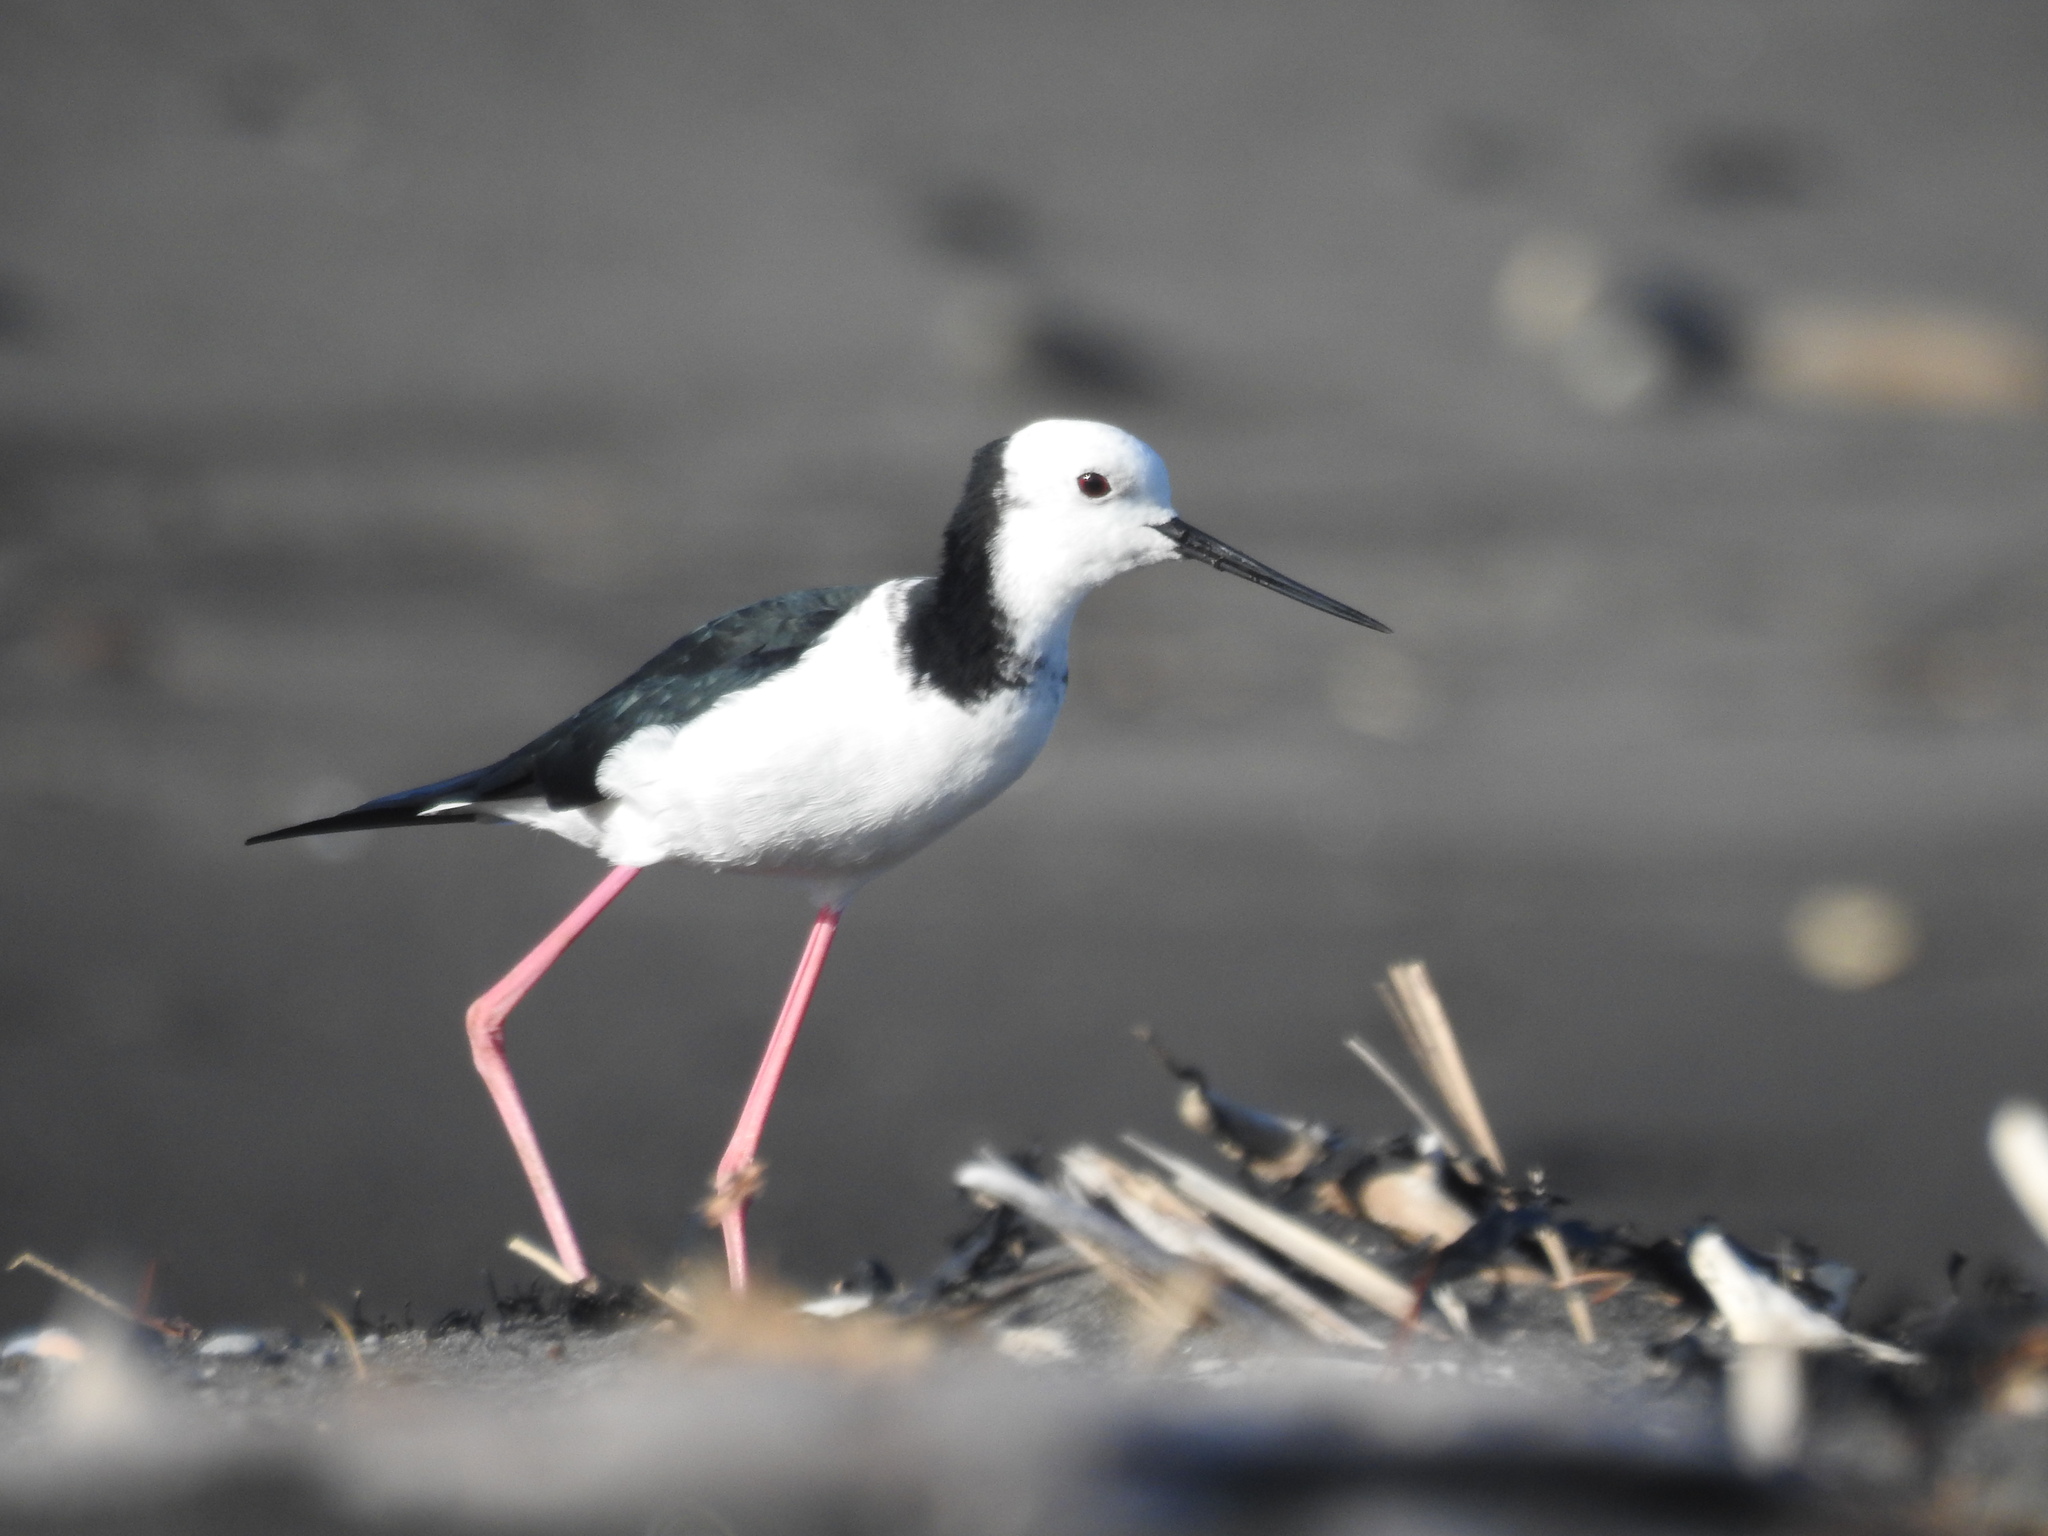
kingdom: Animalia
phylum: Chordata
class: Aves
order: Charadriiformes
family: Recurvirostridae
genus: Himantopus
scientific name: Himantopus leucocephalus
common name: White-headed stilt
